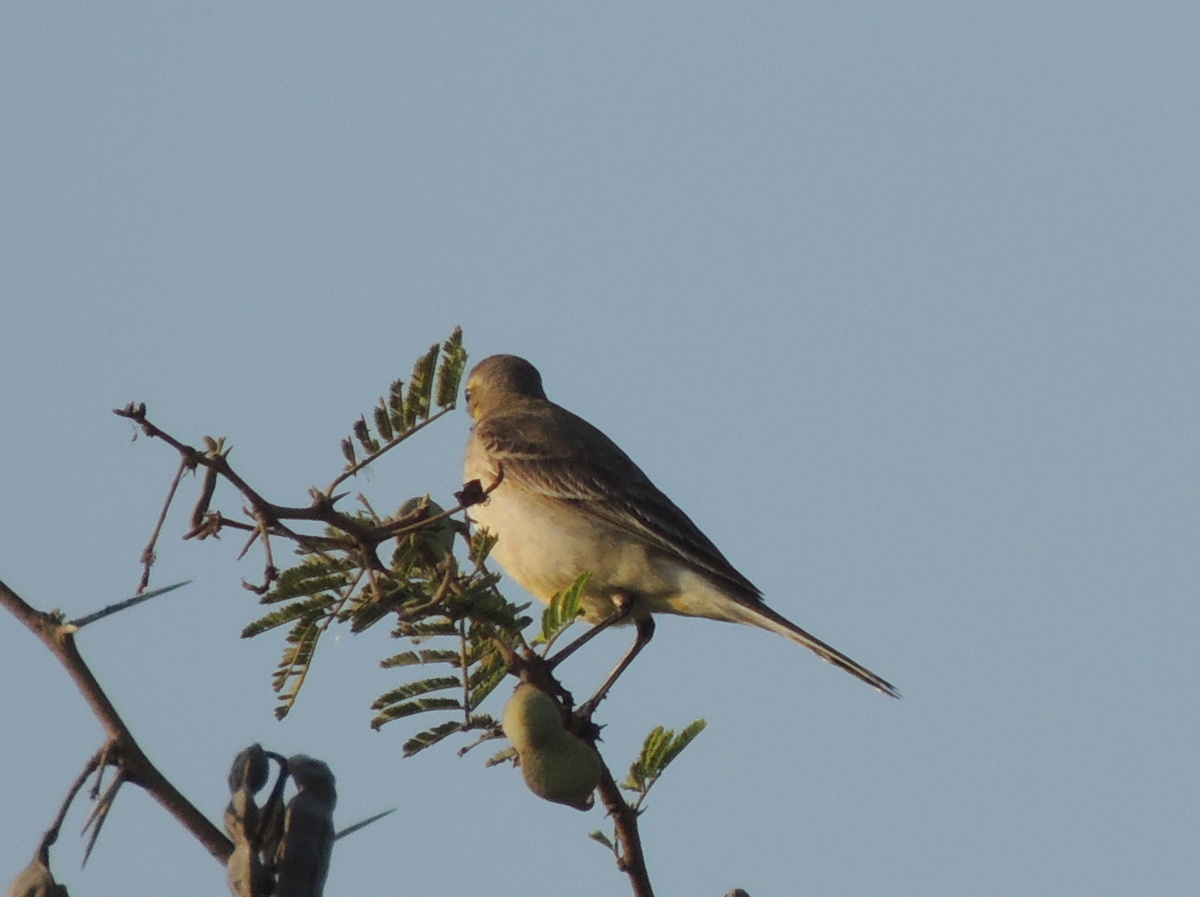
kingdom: Animalia
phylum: Chordata
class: Aves
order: Passeriformes
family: Motacillidae
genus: Motacilla
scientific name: Motacilla citreola
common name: Citrine wagtail
